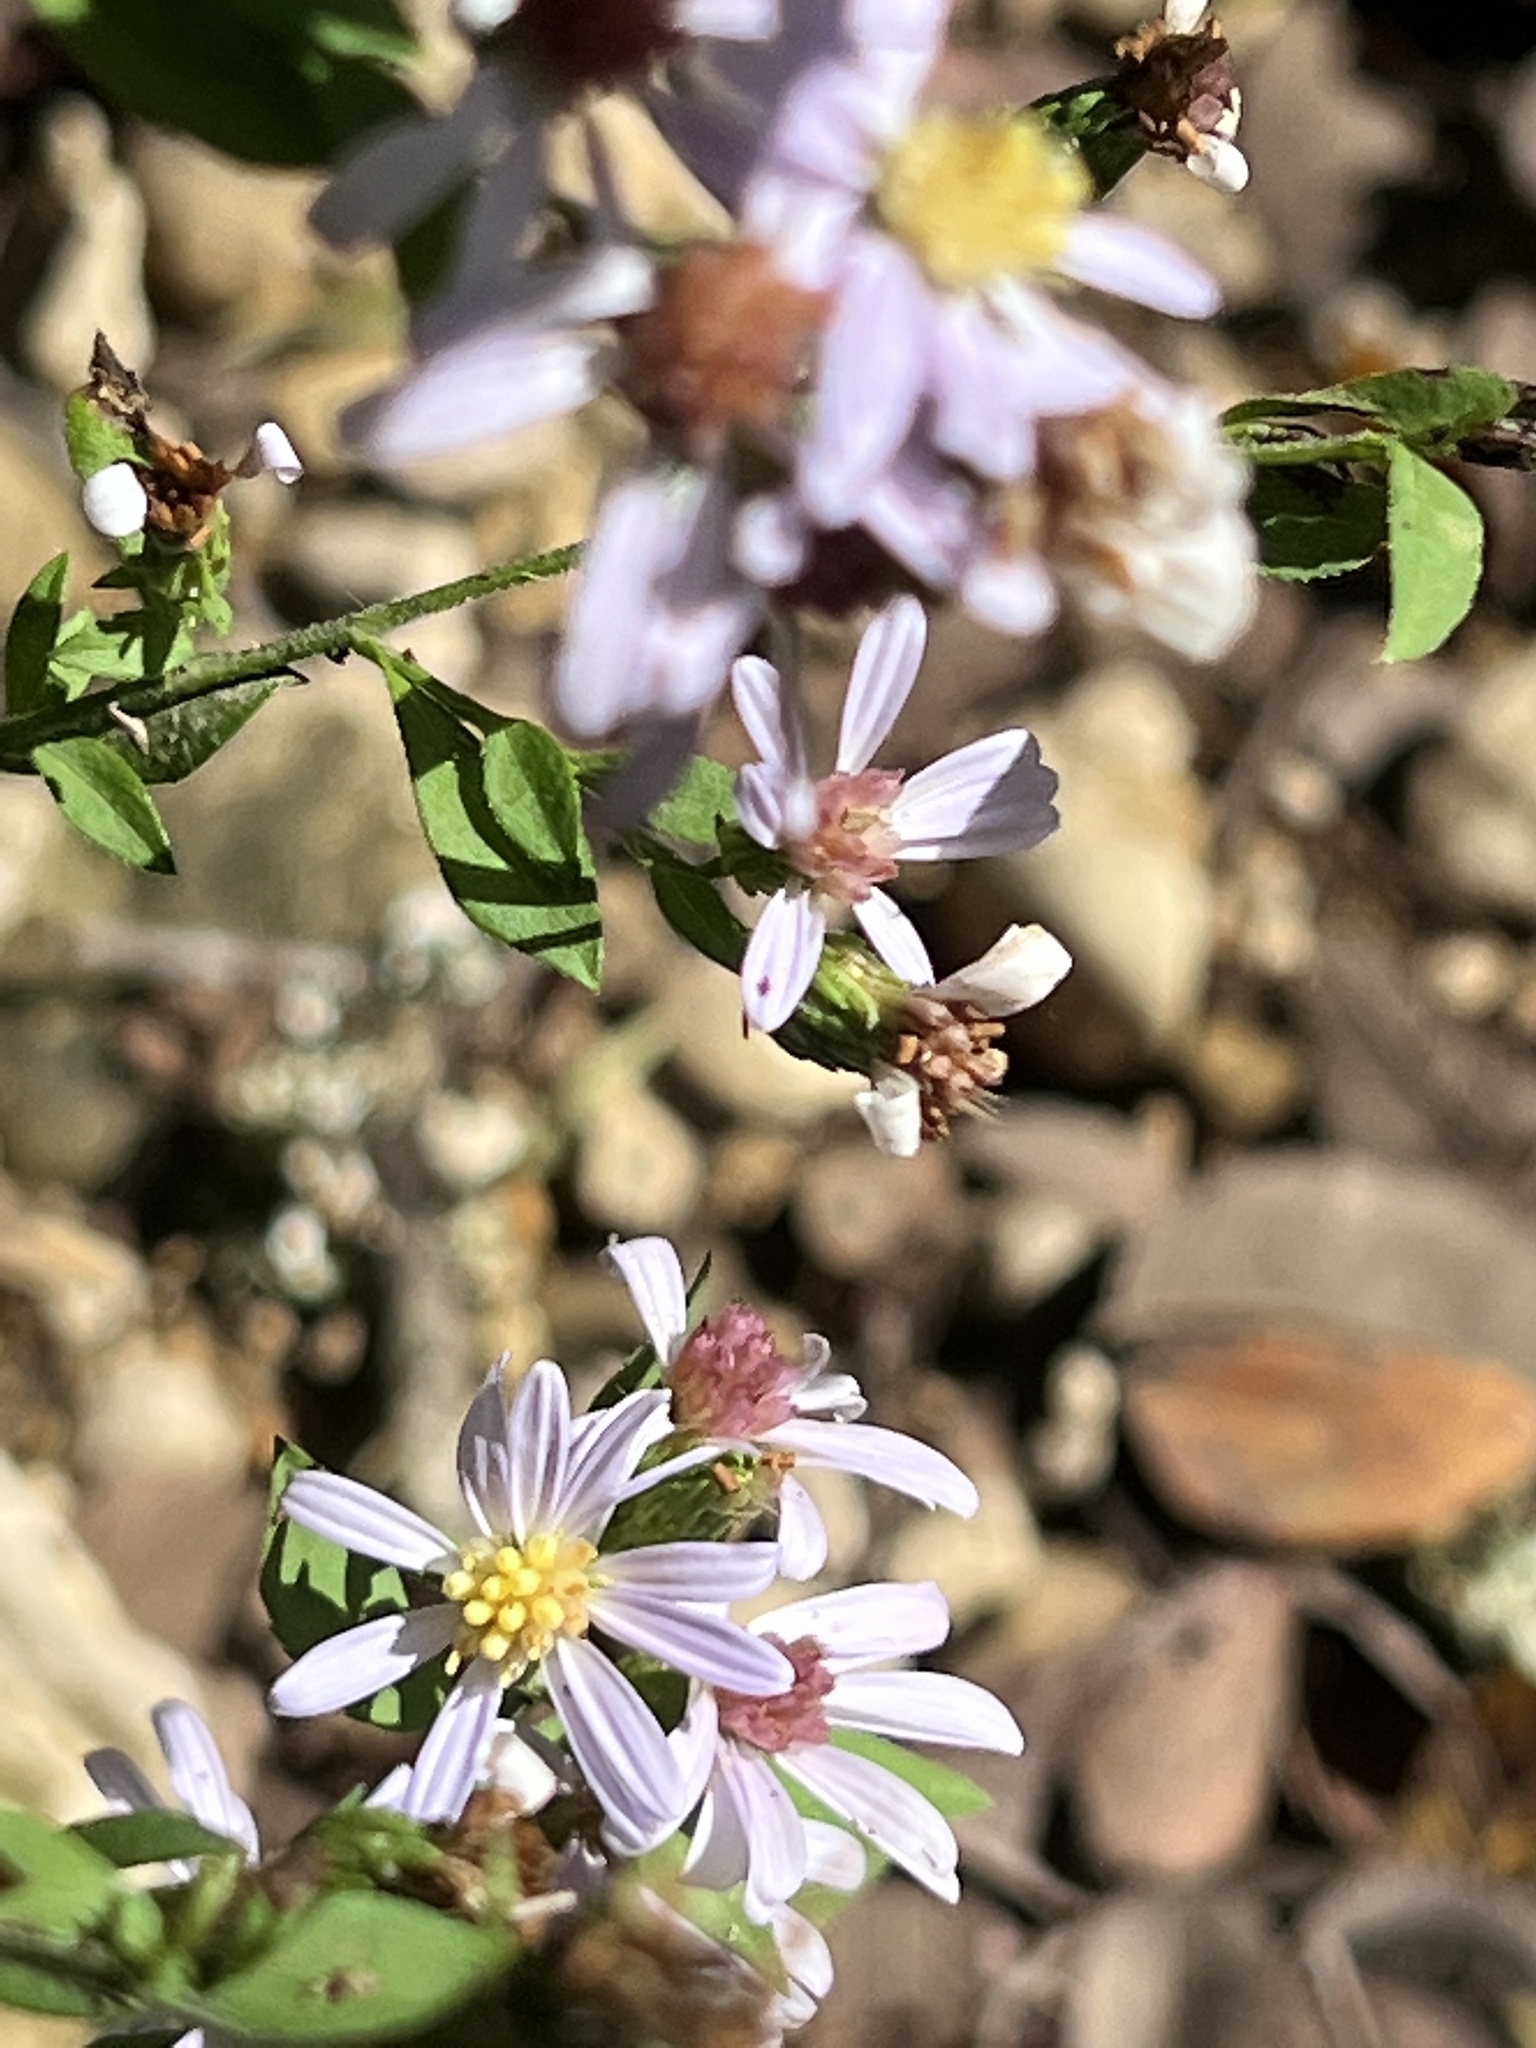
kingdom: Plantae
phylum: Tracheophyta
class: Magnoliopsida
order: Asterales
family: Asteraceae
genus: Symphyotrichum
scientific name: Symphyotrichum drummondii
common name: Drummond's aster
